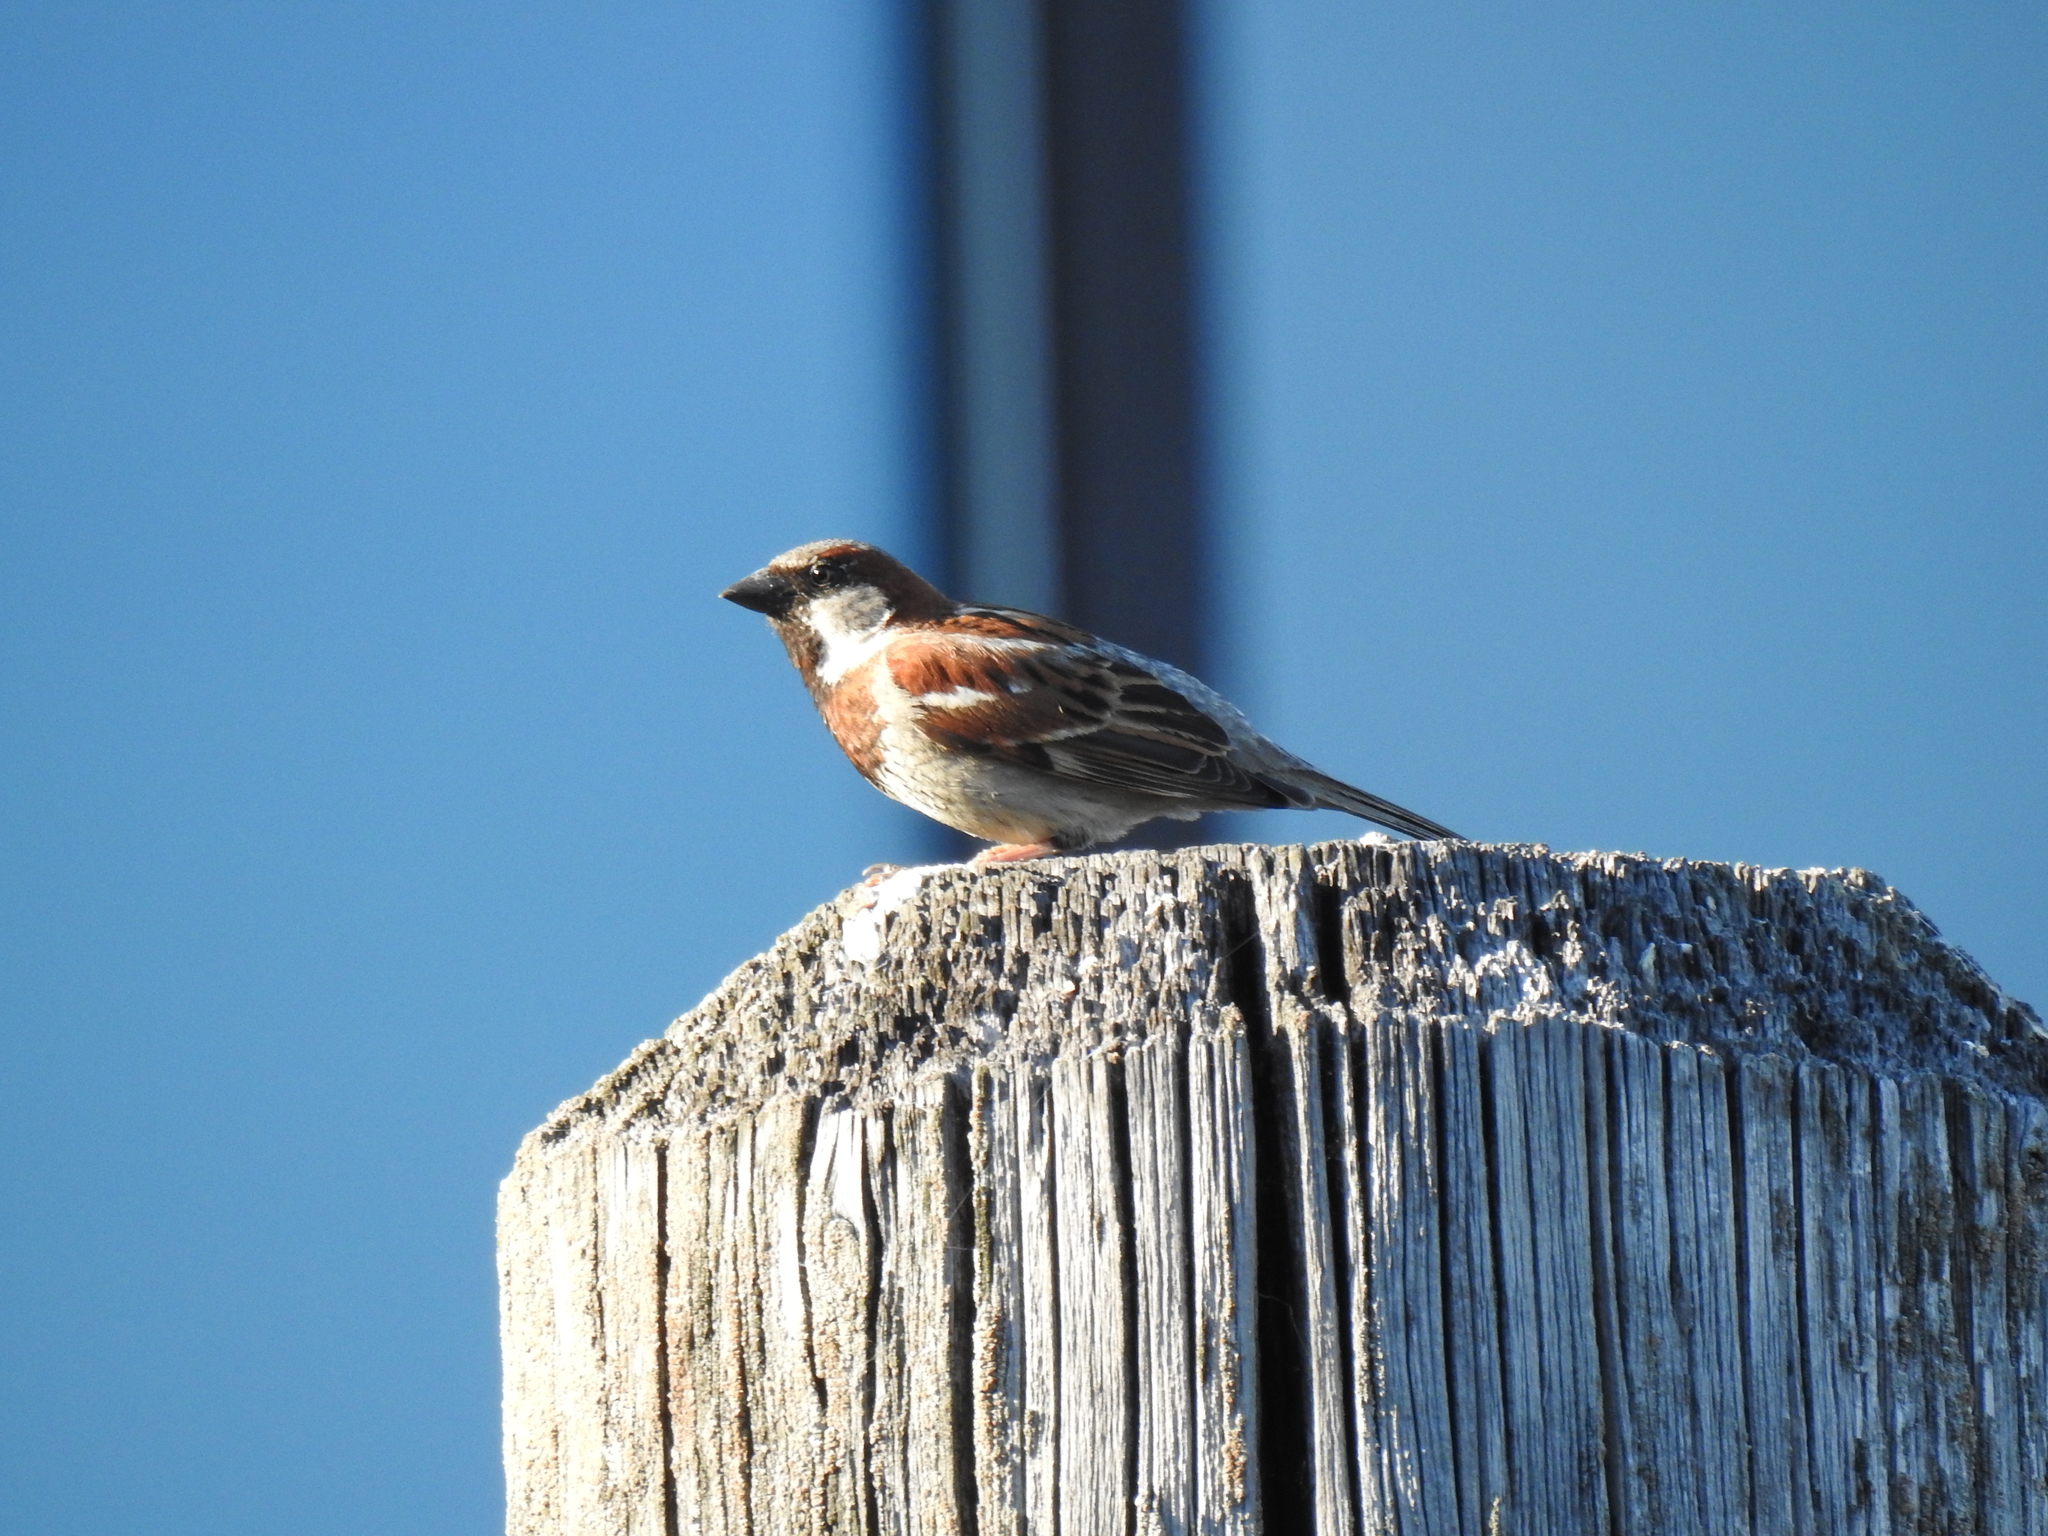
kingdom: Animalia
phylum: Chordata
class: Aves
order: Passeriformes
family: Passeridae
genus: Passer
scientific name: Passer domesticus
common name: House sparrow
